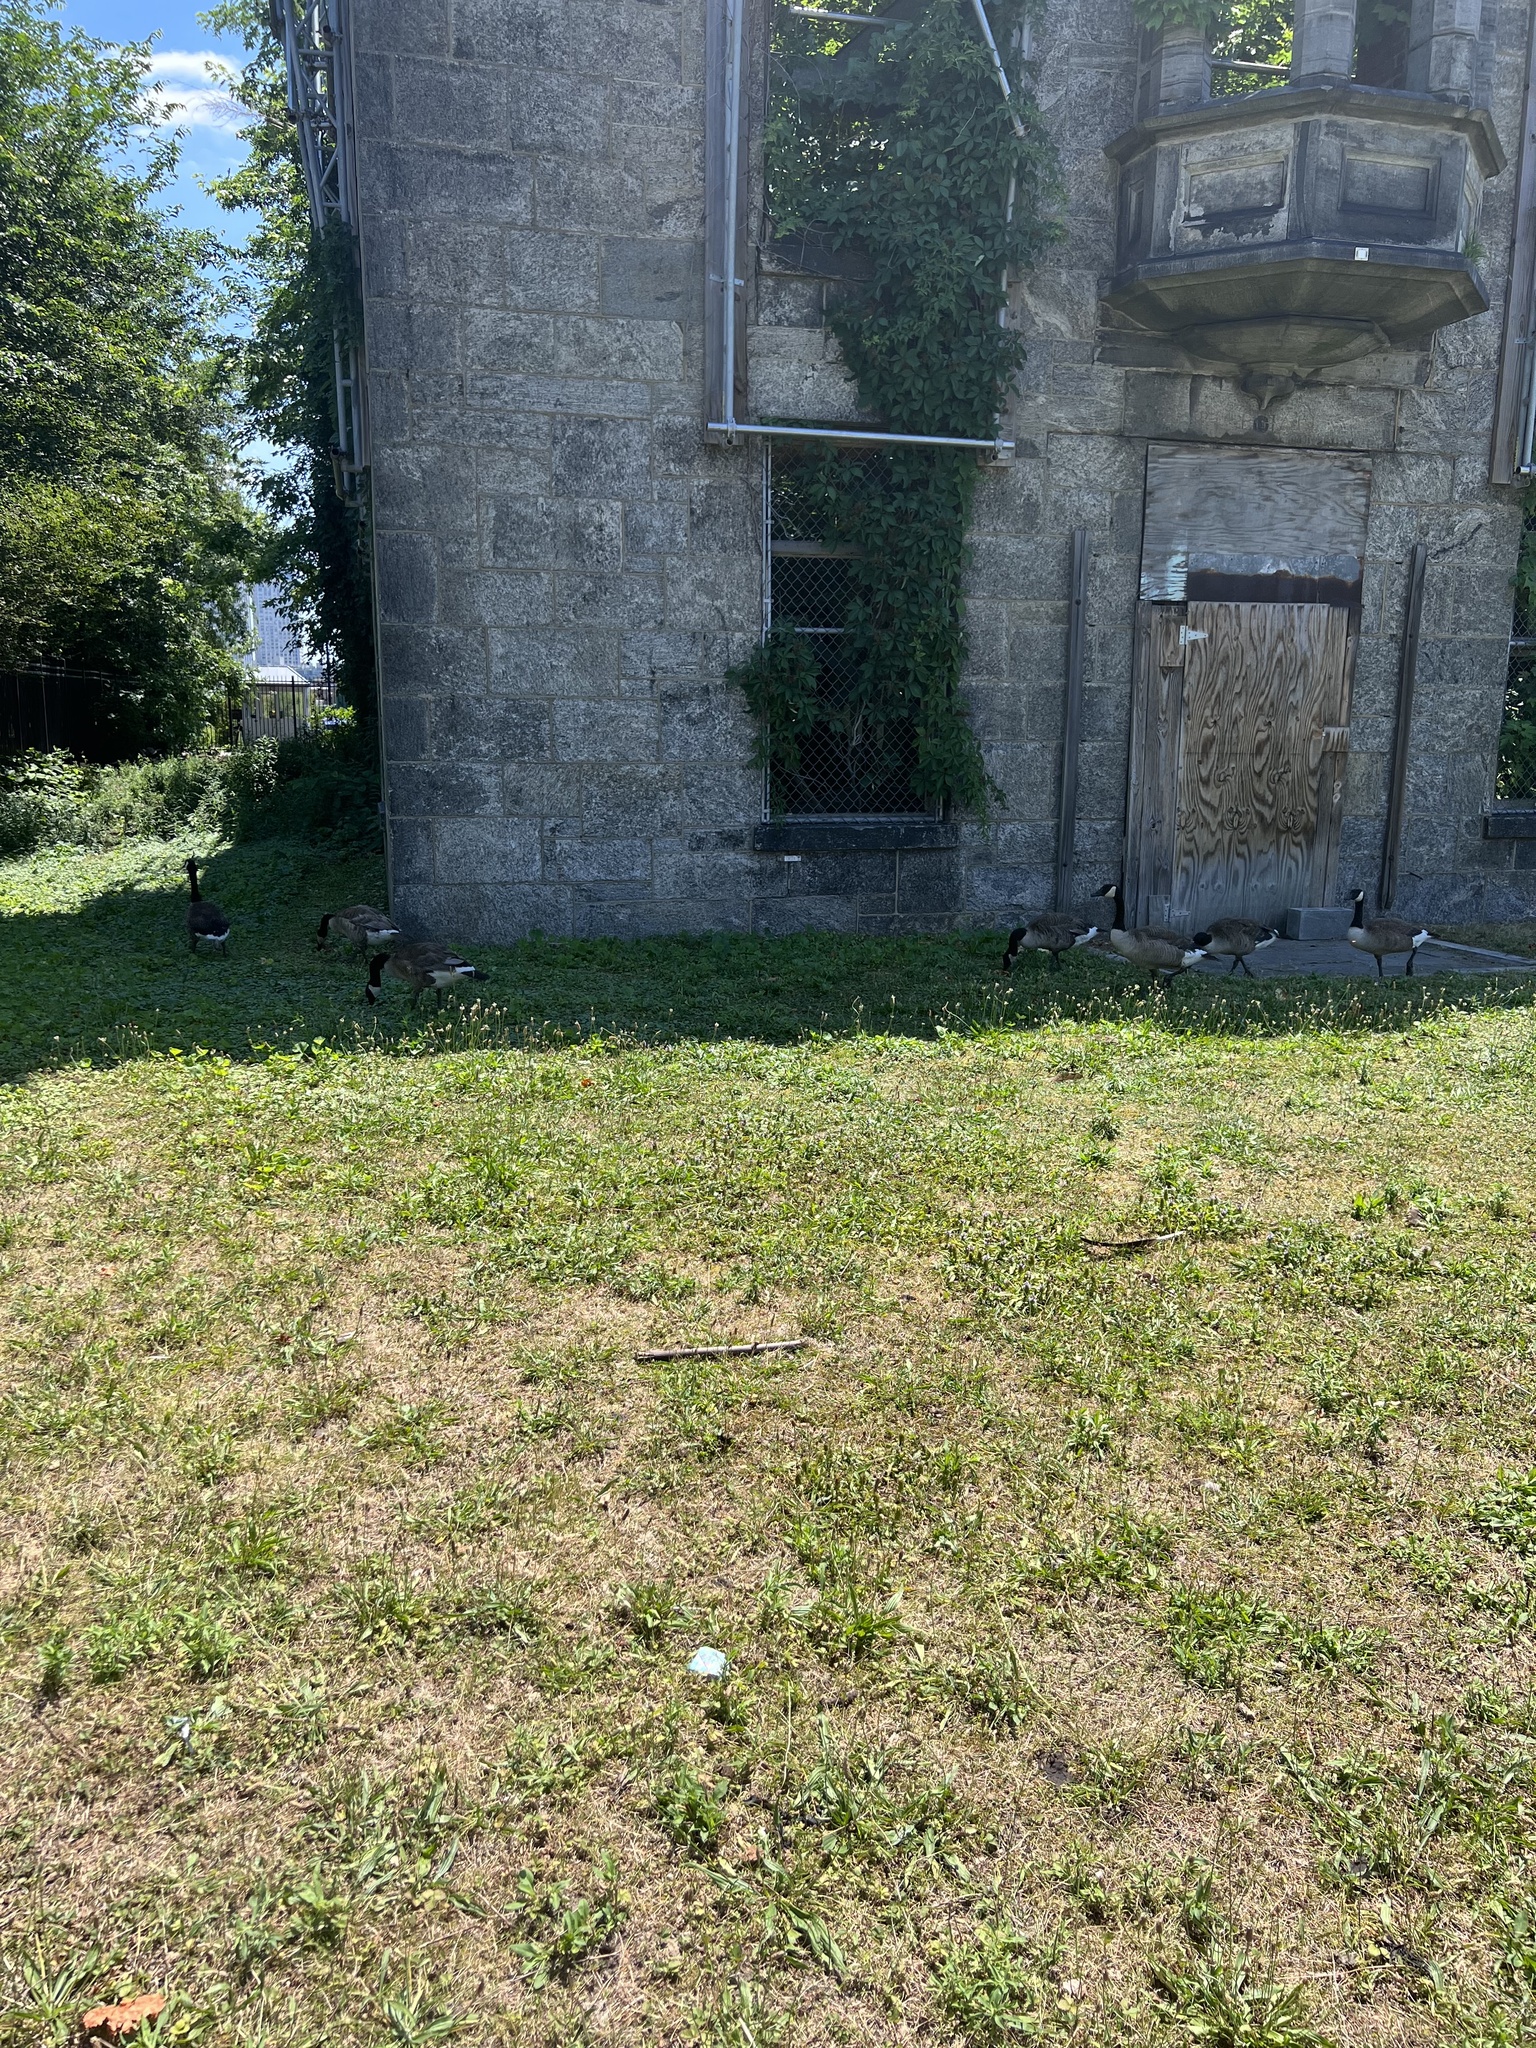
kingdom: Animalia
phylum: Chordata
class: Aves
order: Anseriformes
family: Anatidae
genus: Branta
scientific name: Branta canadensis
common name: Canada goose
